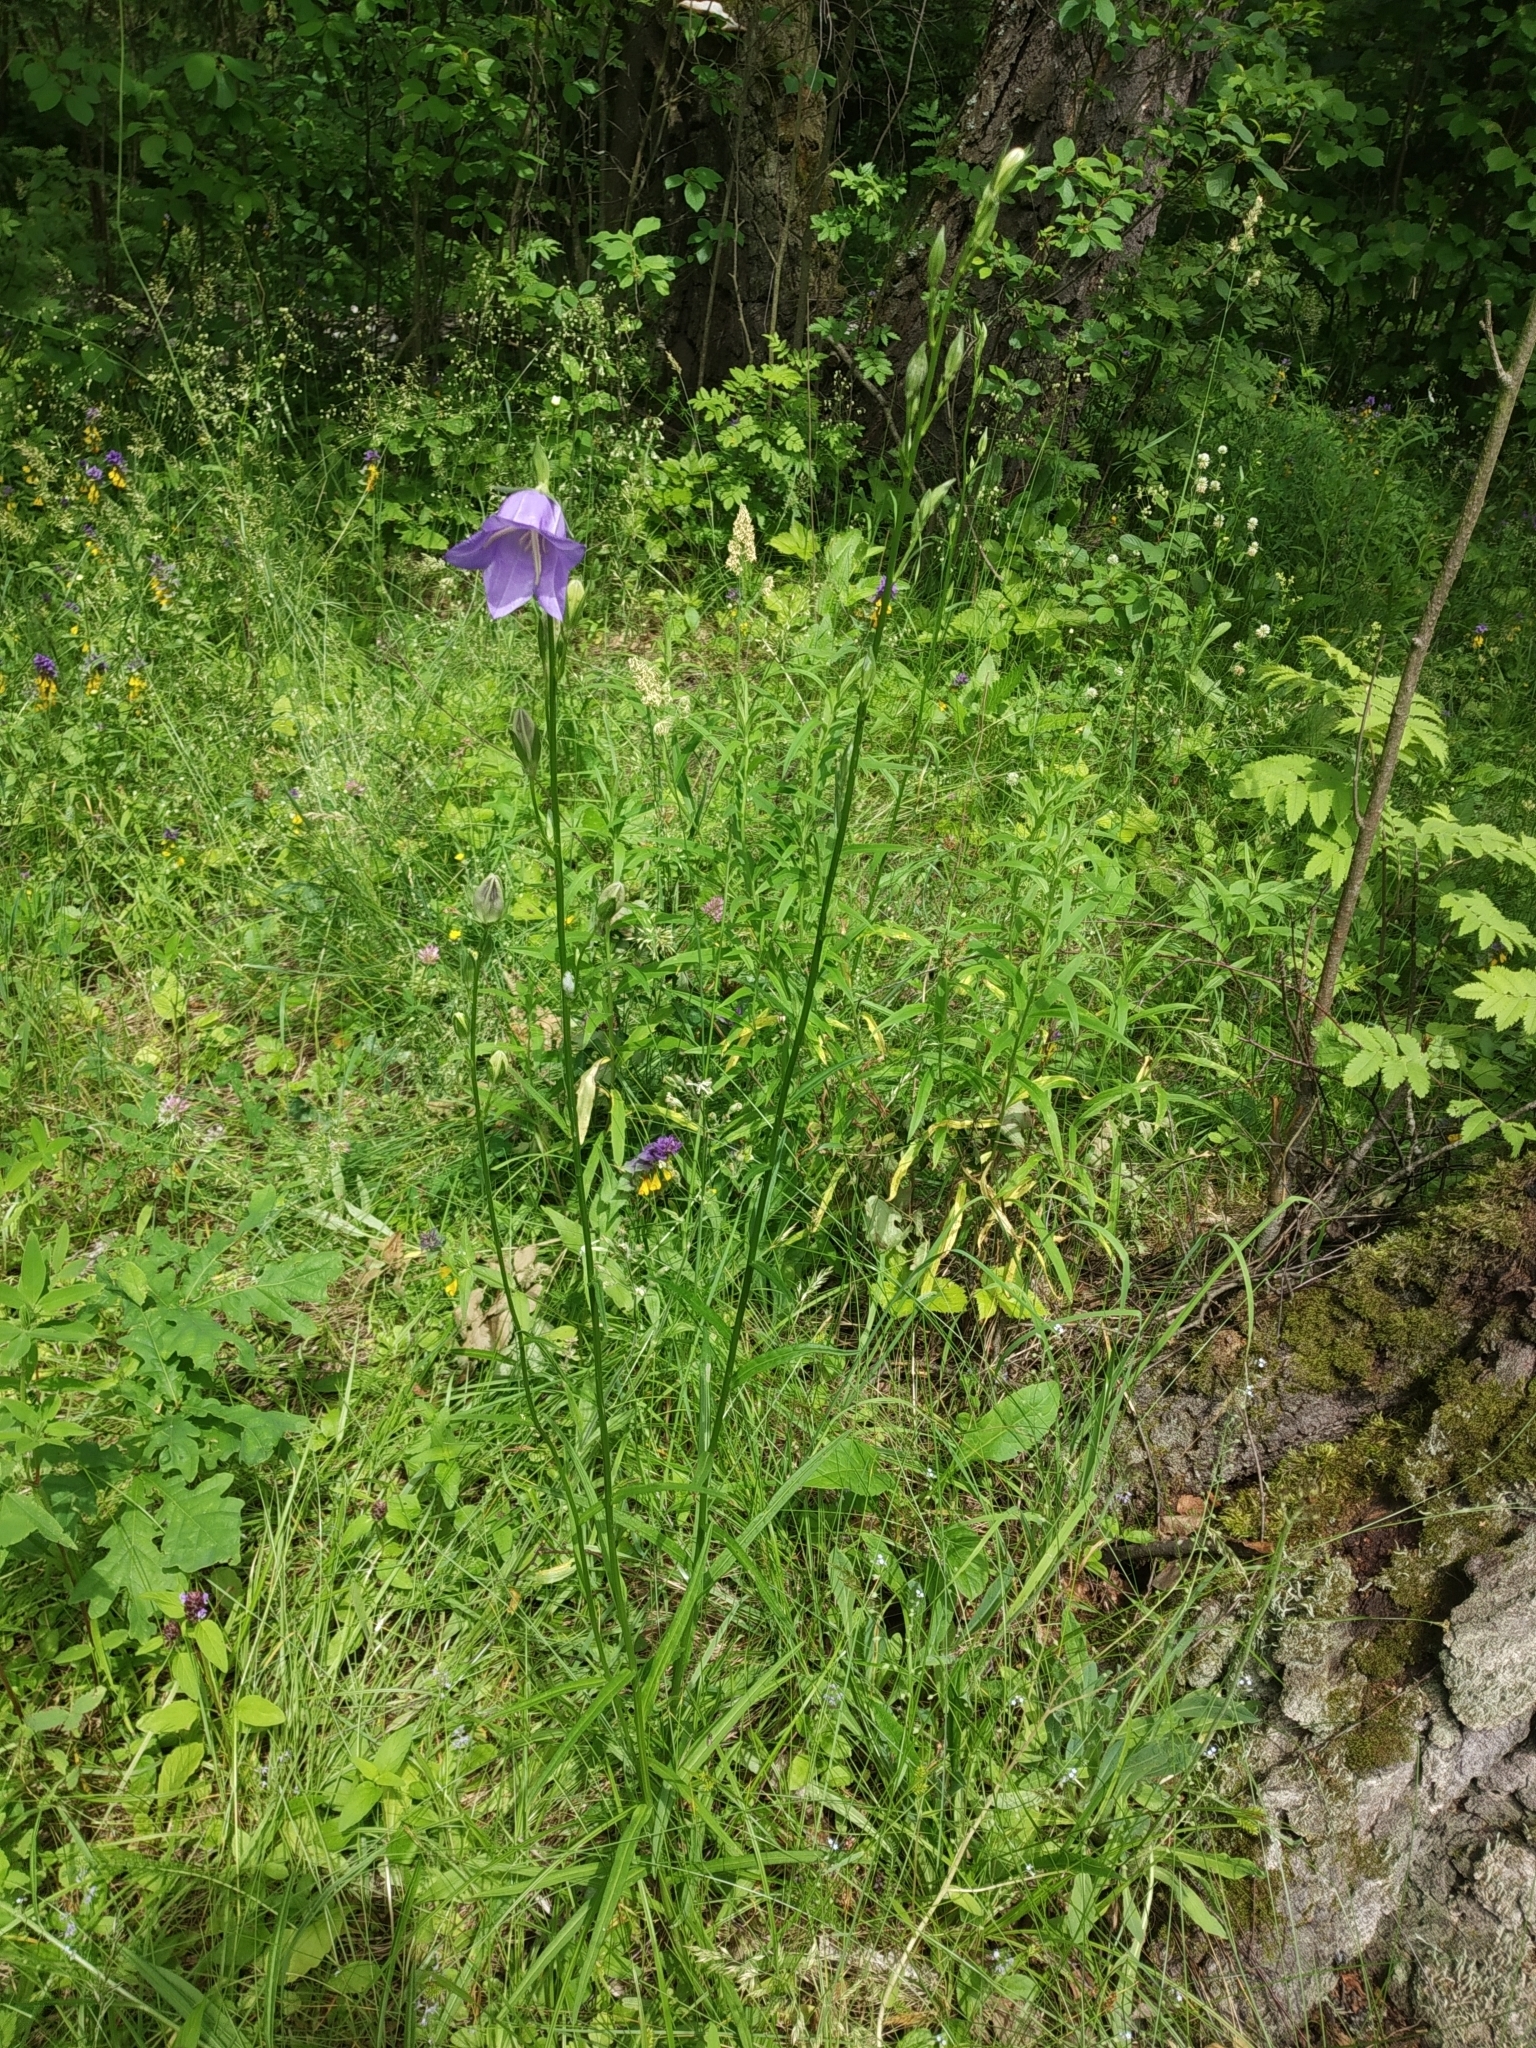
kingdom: Plantae
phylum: Tracheophyta
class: Magnoliopsida
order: Asterales
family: Campanulaceae
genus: Campanula
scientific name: Campanula persicifolia
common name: Peach-leaved bellflower
